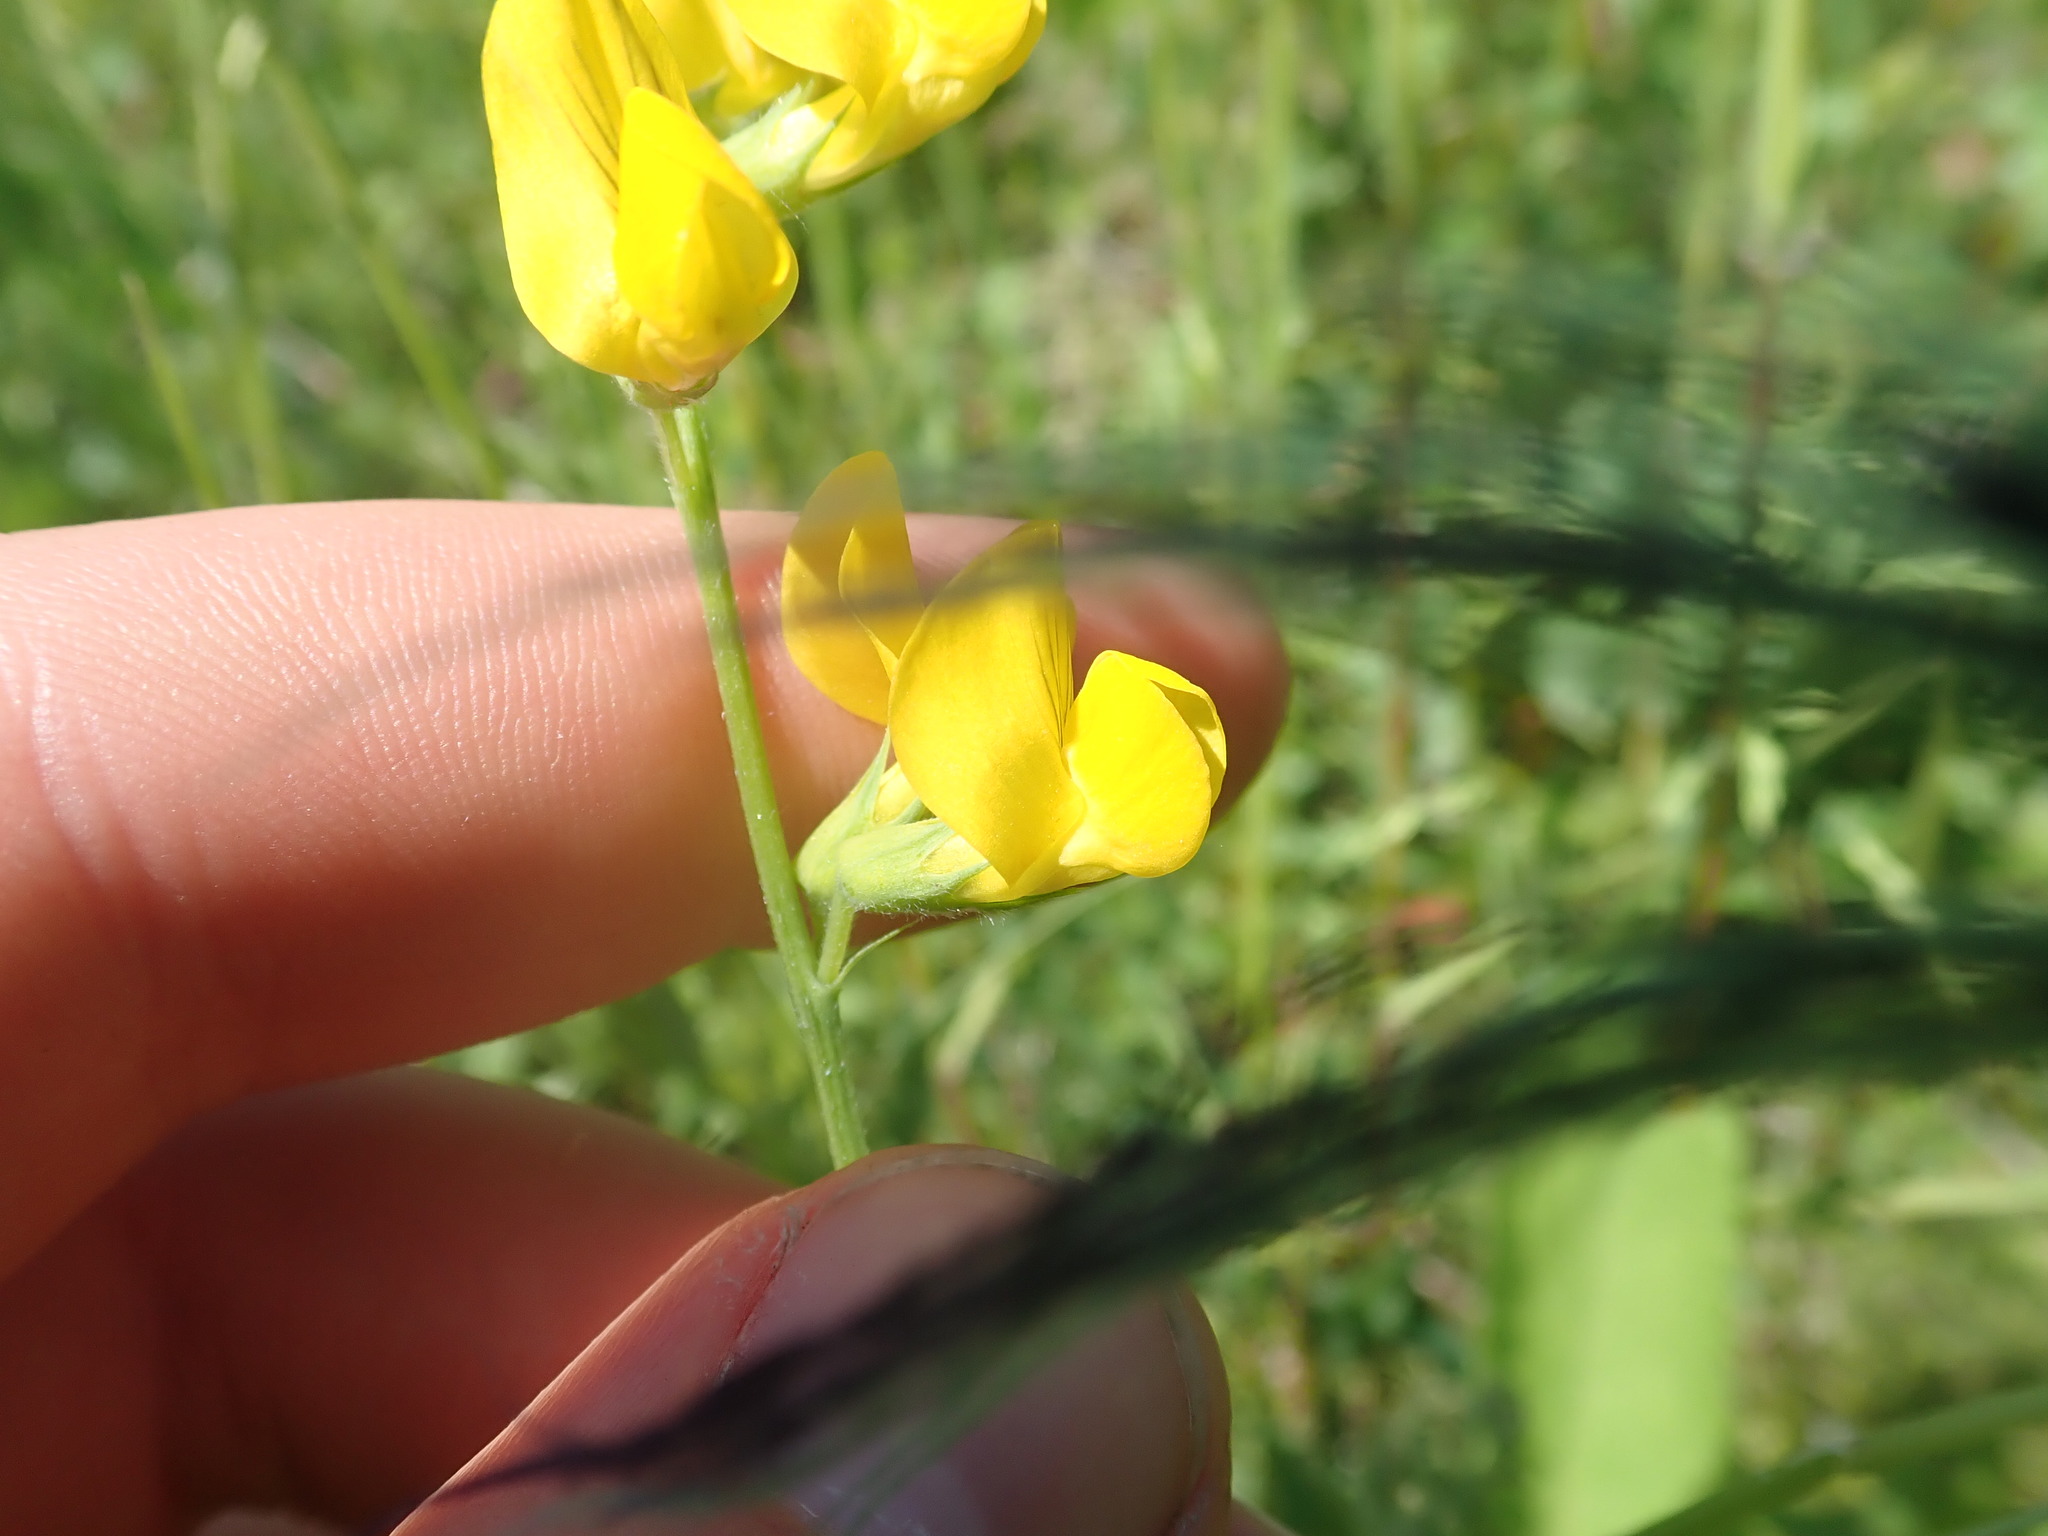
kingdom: Plantae
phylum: Tracheophyta
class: Magnoliopsida
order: Fabales
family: Fabaceae
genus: Lathyrus
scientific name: Lathyrus pratensis
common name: Meadow vetchling
